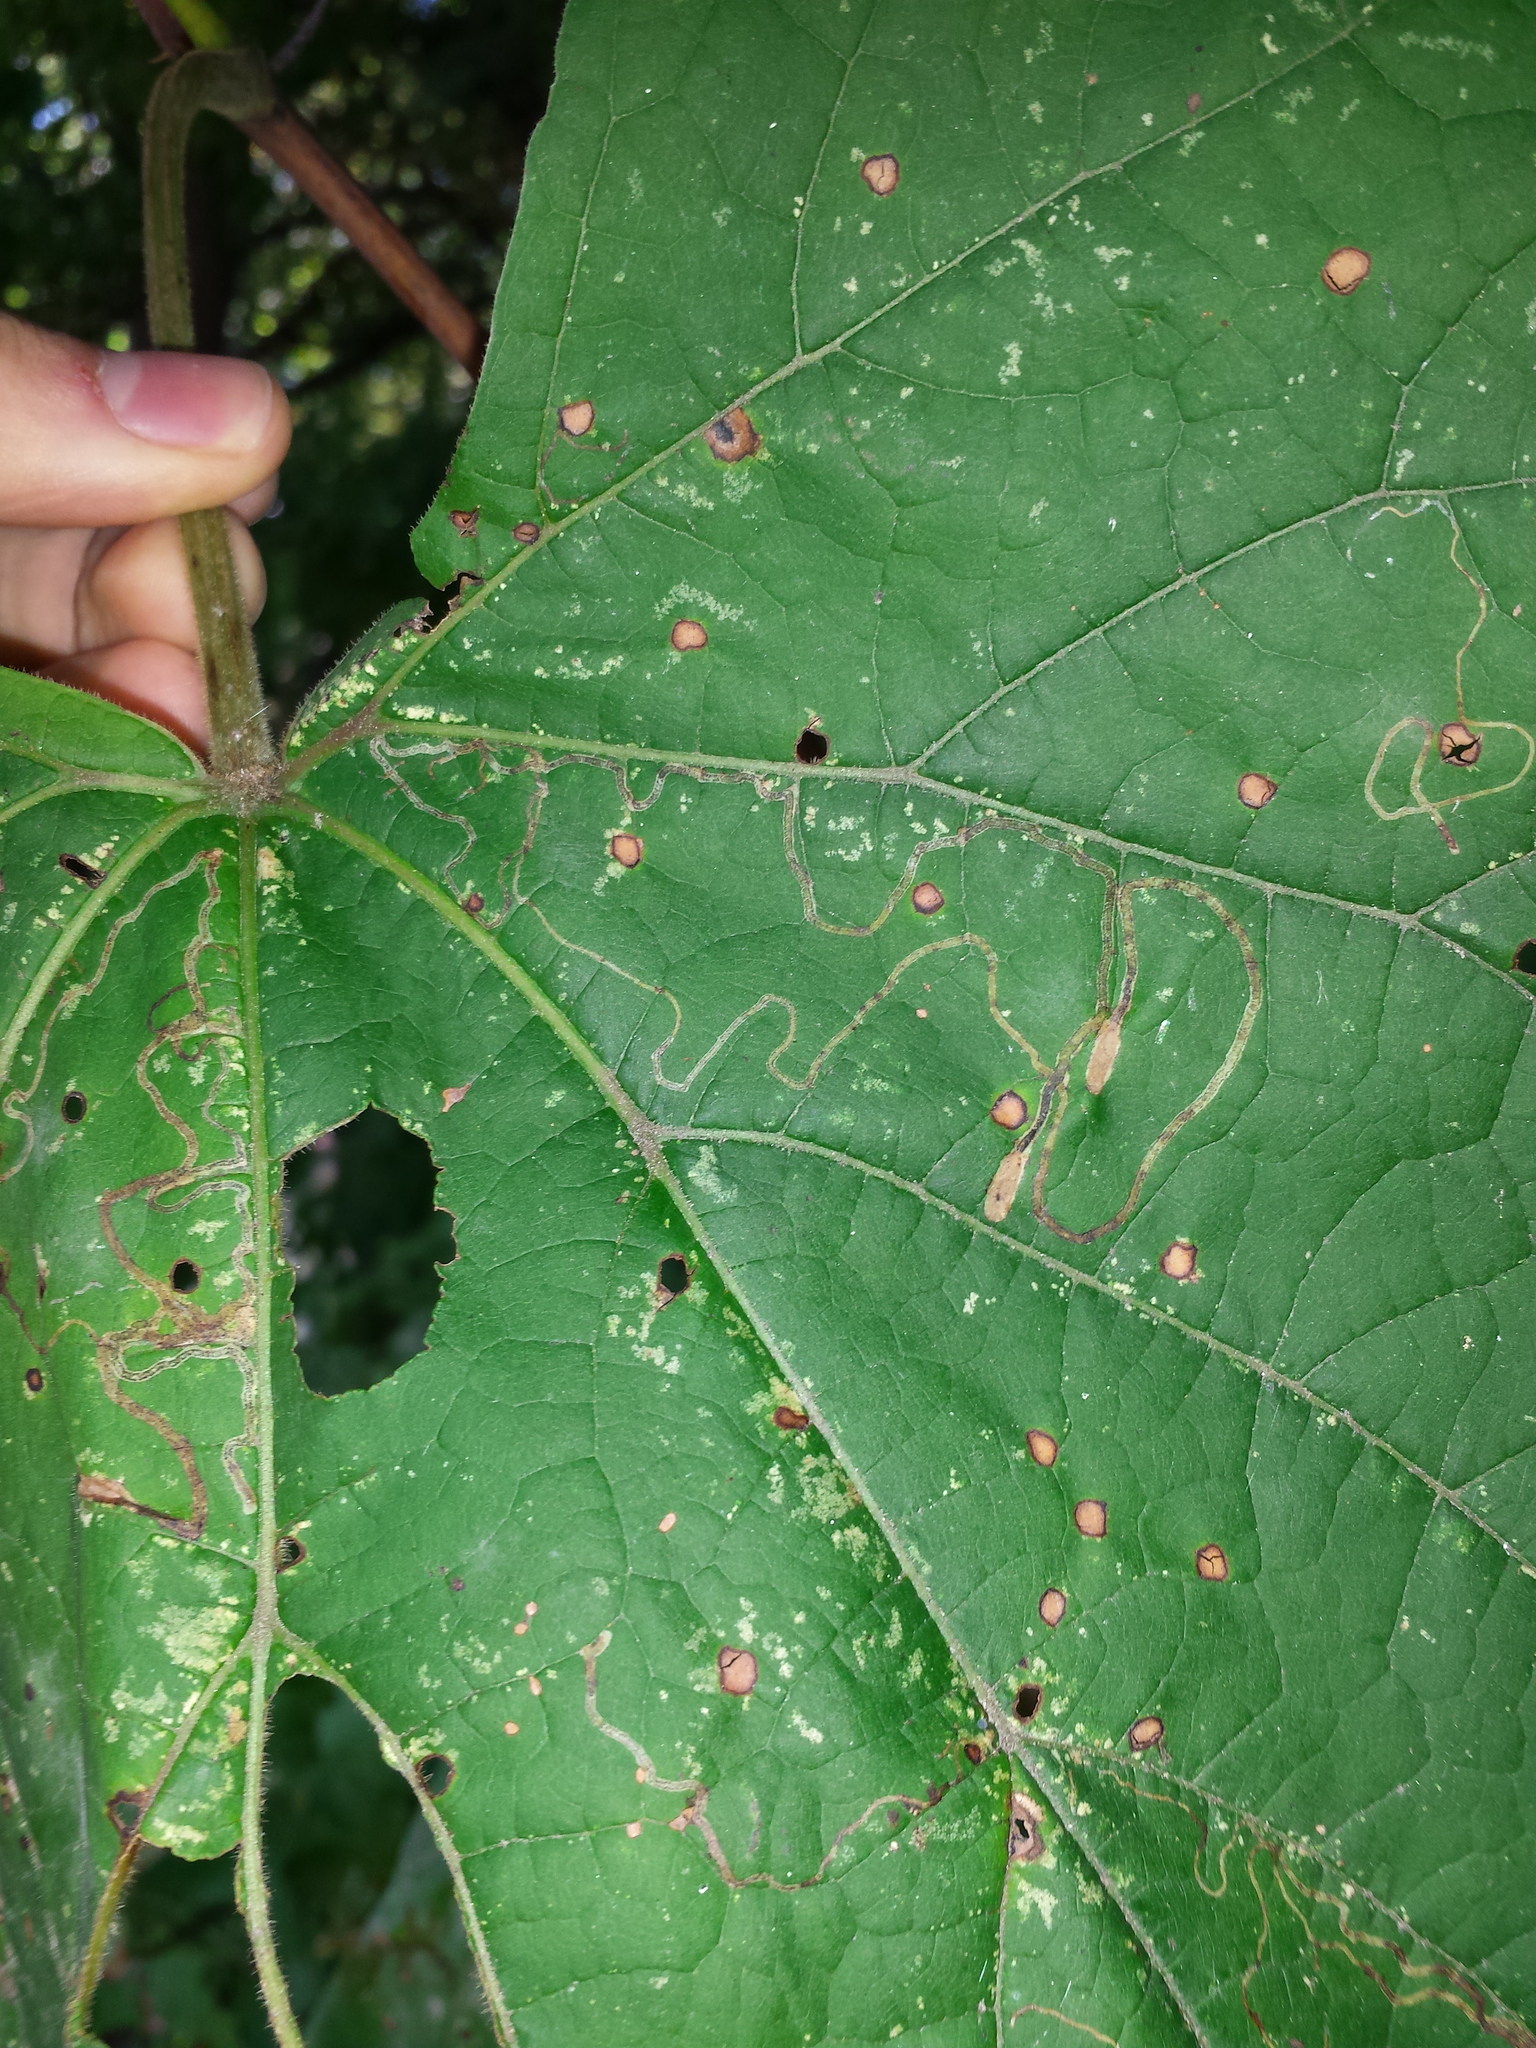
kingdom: Animalia
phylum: Arthropoda
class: Insecta
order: Lepidoptera
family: Gracillariidae
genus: Phyllocnistis
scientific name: Phyllocnistis vitifoliella
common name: Grape leaf-miner moth
